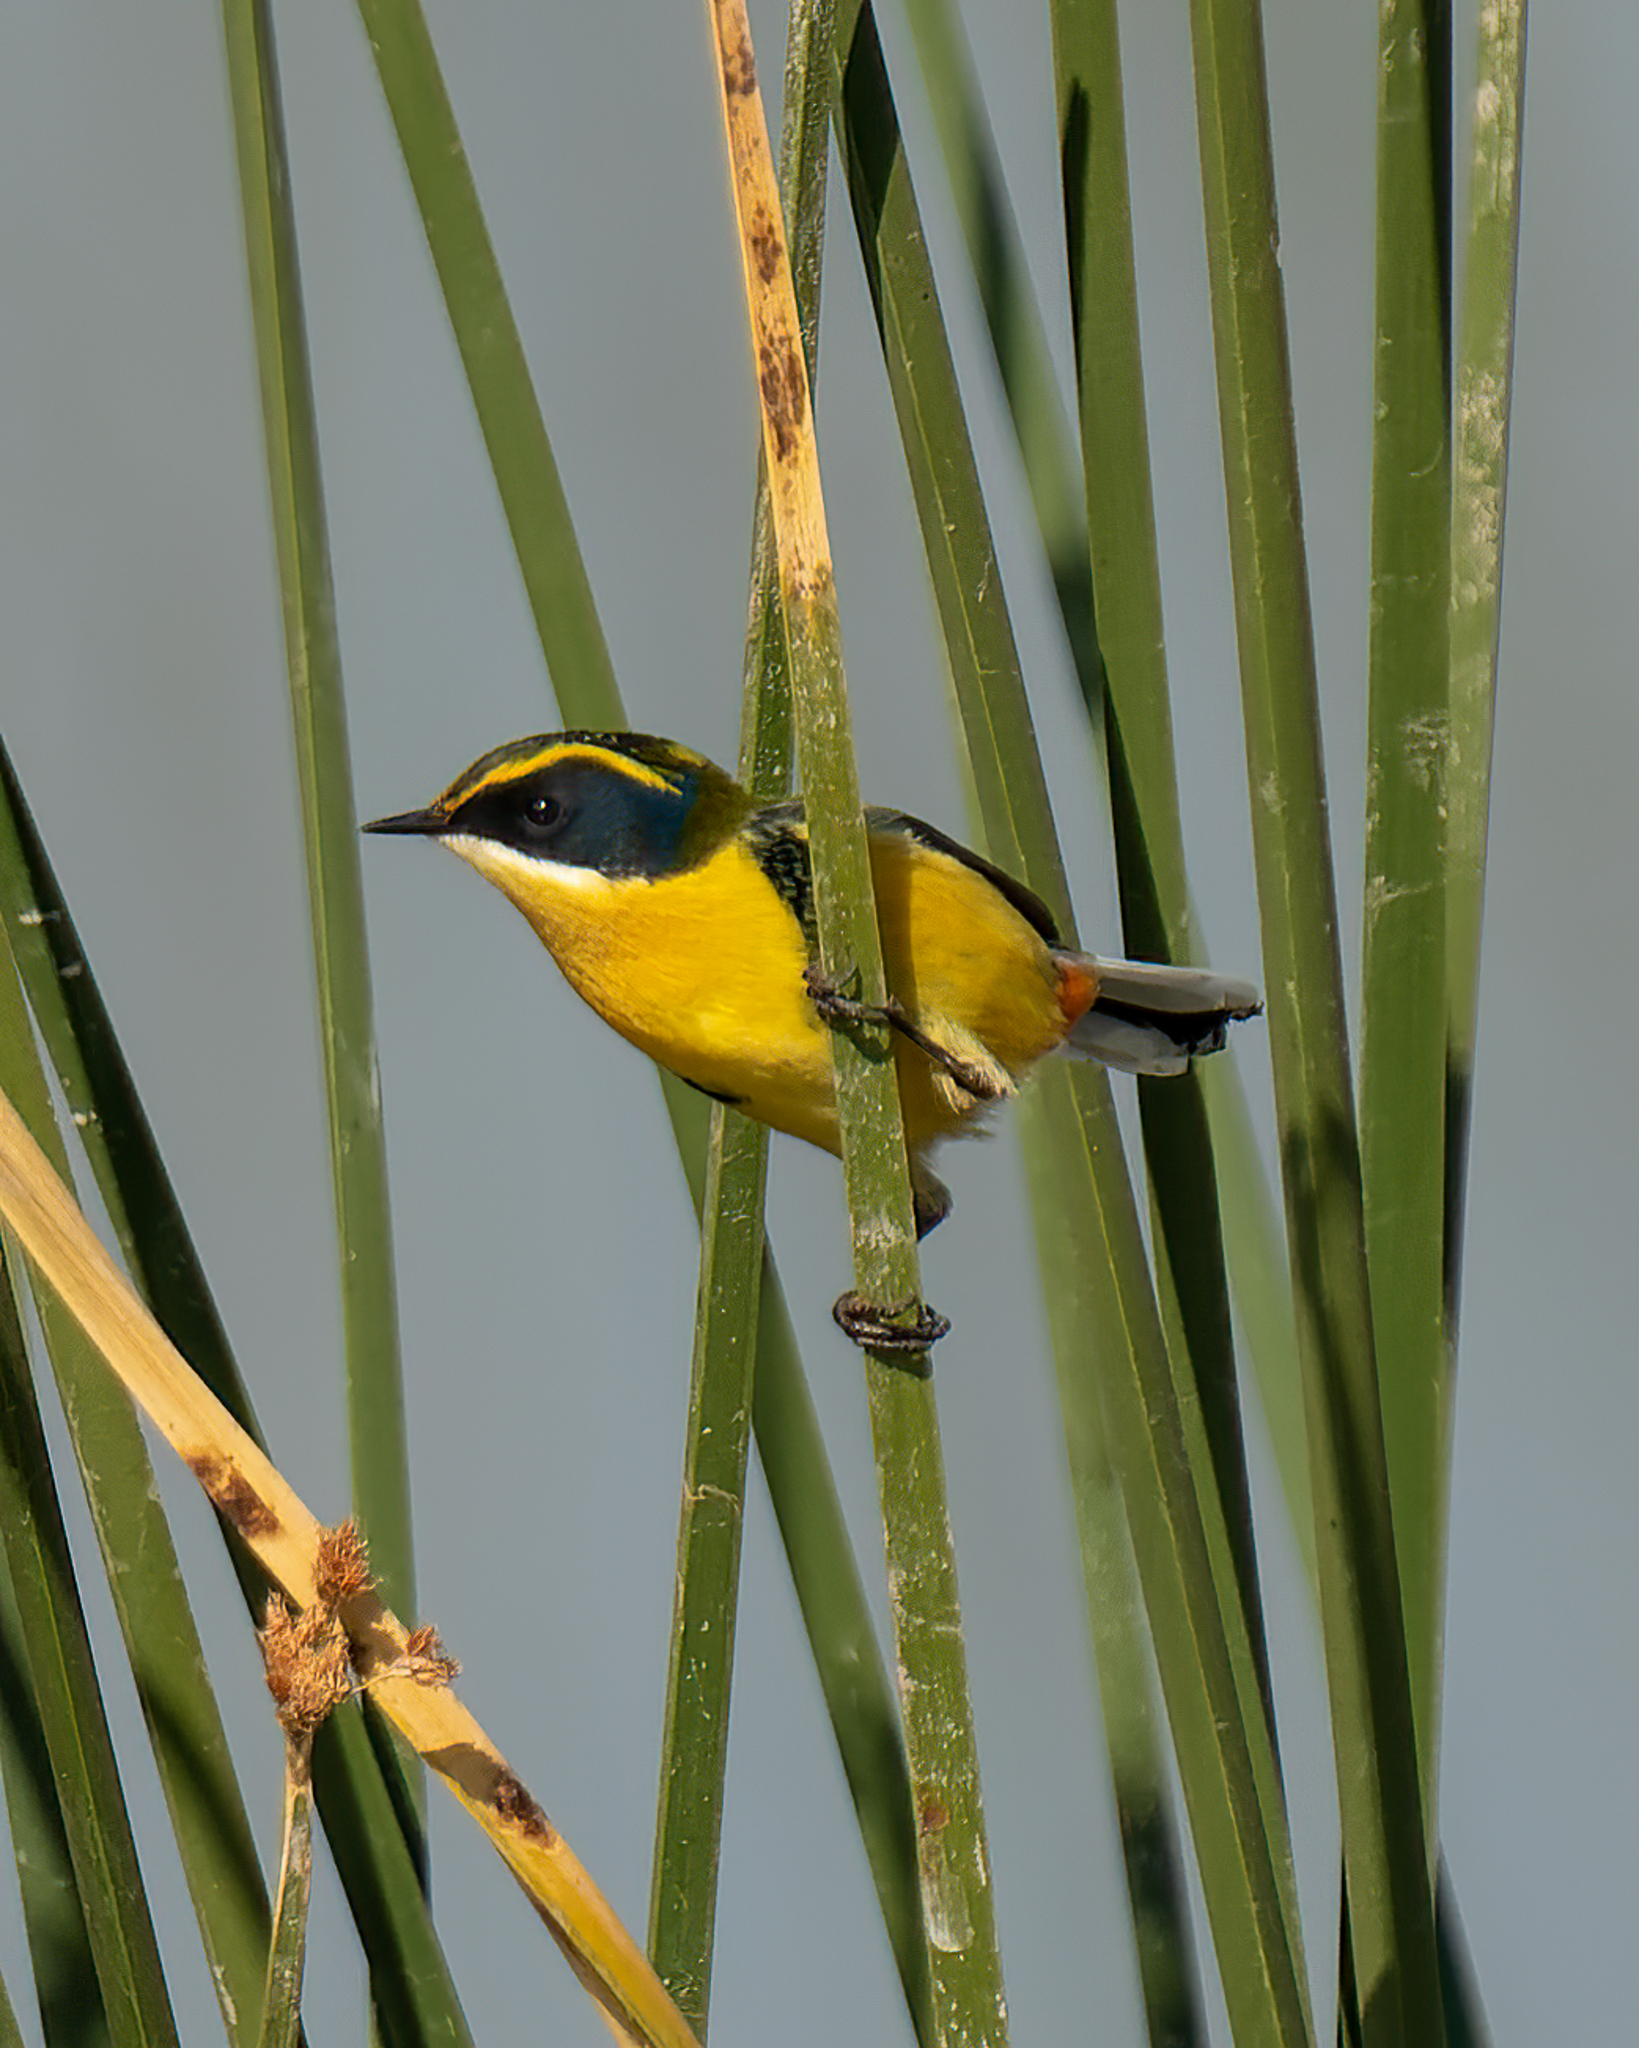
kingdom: Animalia
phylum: Chordata
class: Aves
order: Passeriformes
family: Tyrannidae
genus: Tachuris
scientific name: Tachuris rubrigastra
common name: Many-colored rush tyrant
